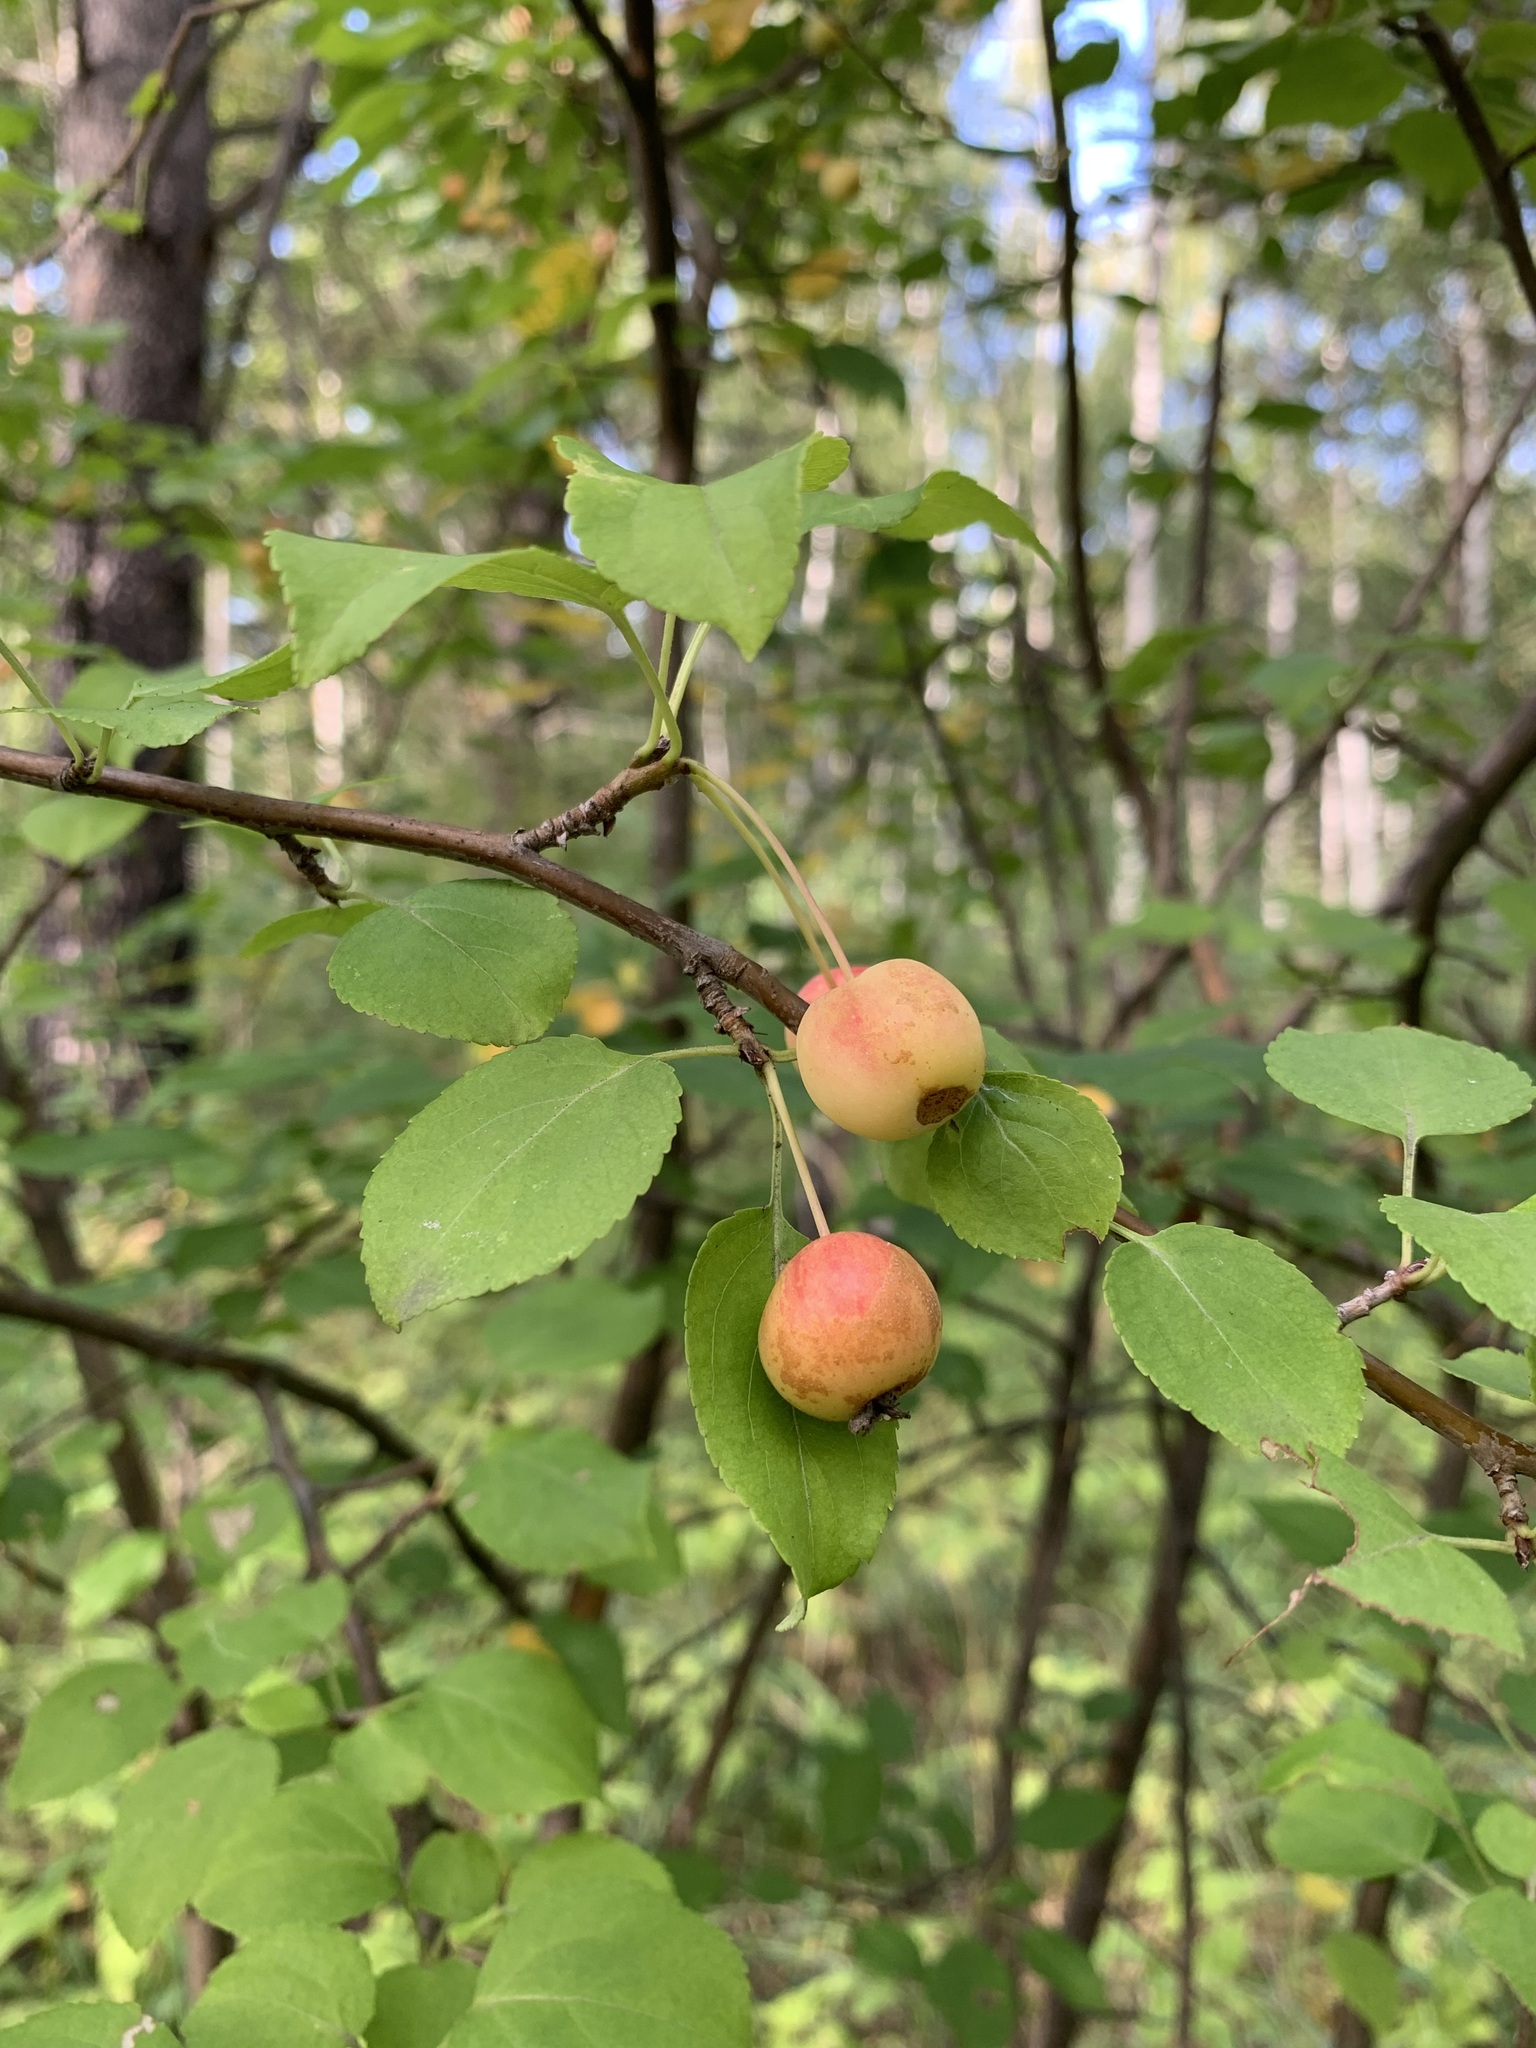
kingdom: Plantae
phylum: Tracheophyta
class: Magnoliopsida
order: Rosales
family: Rosaceae
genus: Malus
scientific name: Malus baccata
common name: Siberian crab
